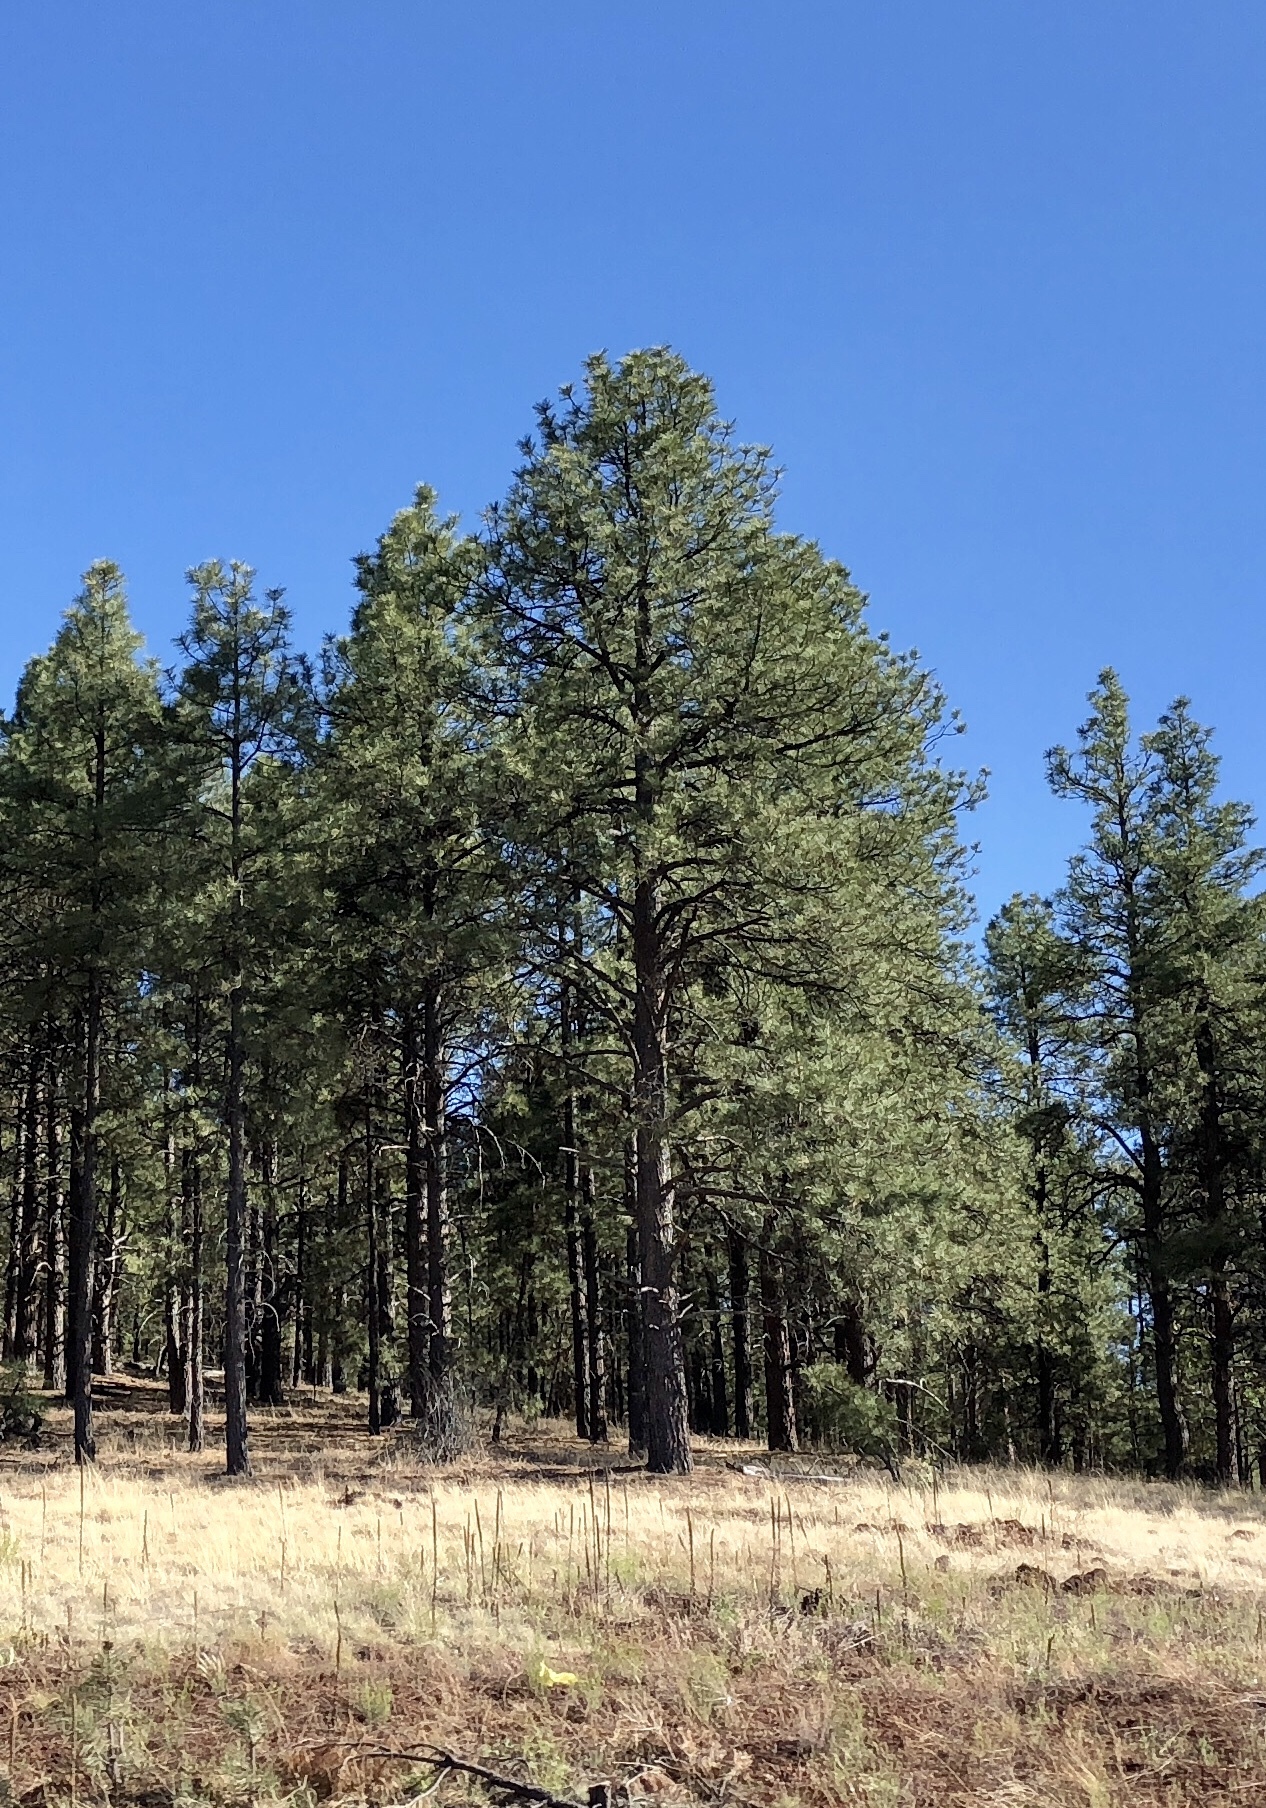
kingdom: Plantae
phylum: Tracheophyta
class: Pinopsida
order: Pinales
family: Pinaceae
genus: Pinus
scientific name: Pinus ponderosa
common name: Western yellow-pine
